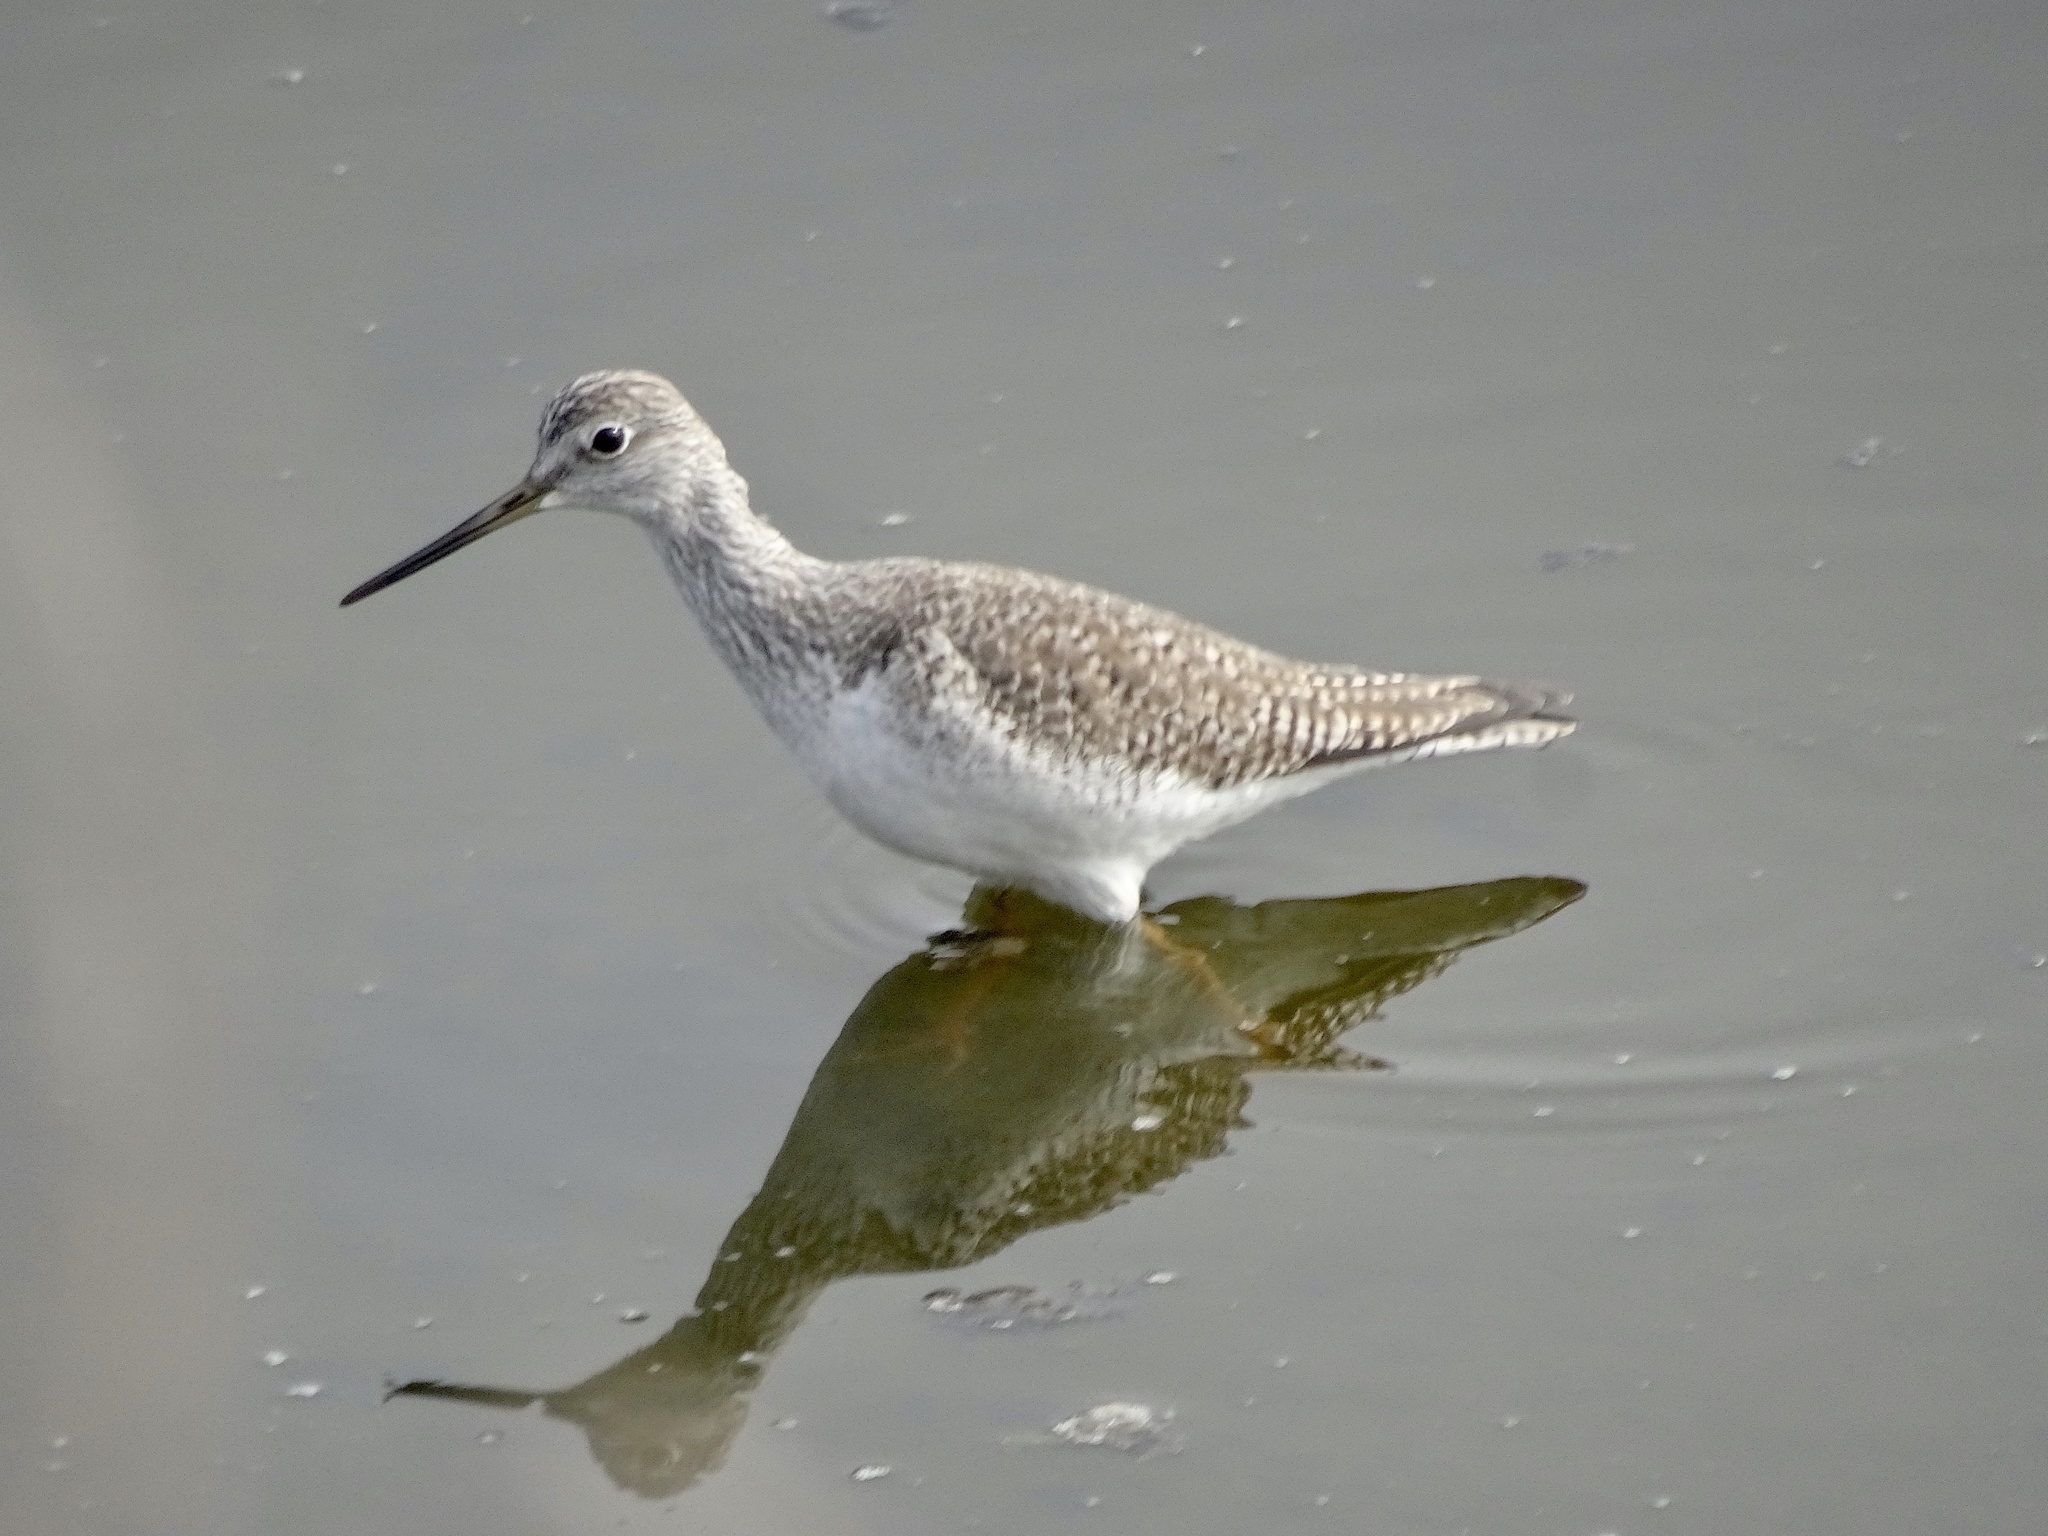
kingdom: Animalia
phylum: Chordata
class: Aves
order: Charadriiformes
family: Scolopacidae
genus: Tringa
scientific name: Tringa melanoleuca
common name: Greater yellowlegs
